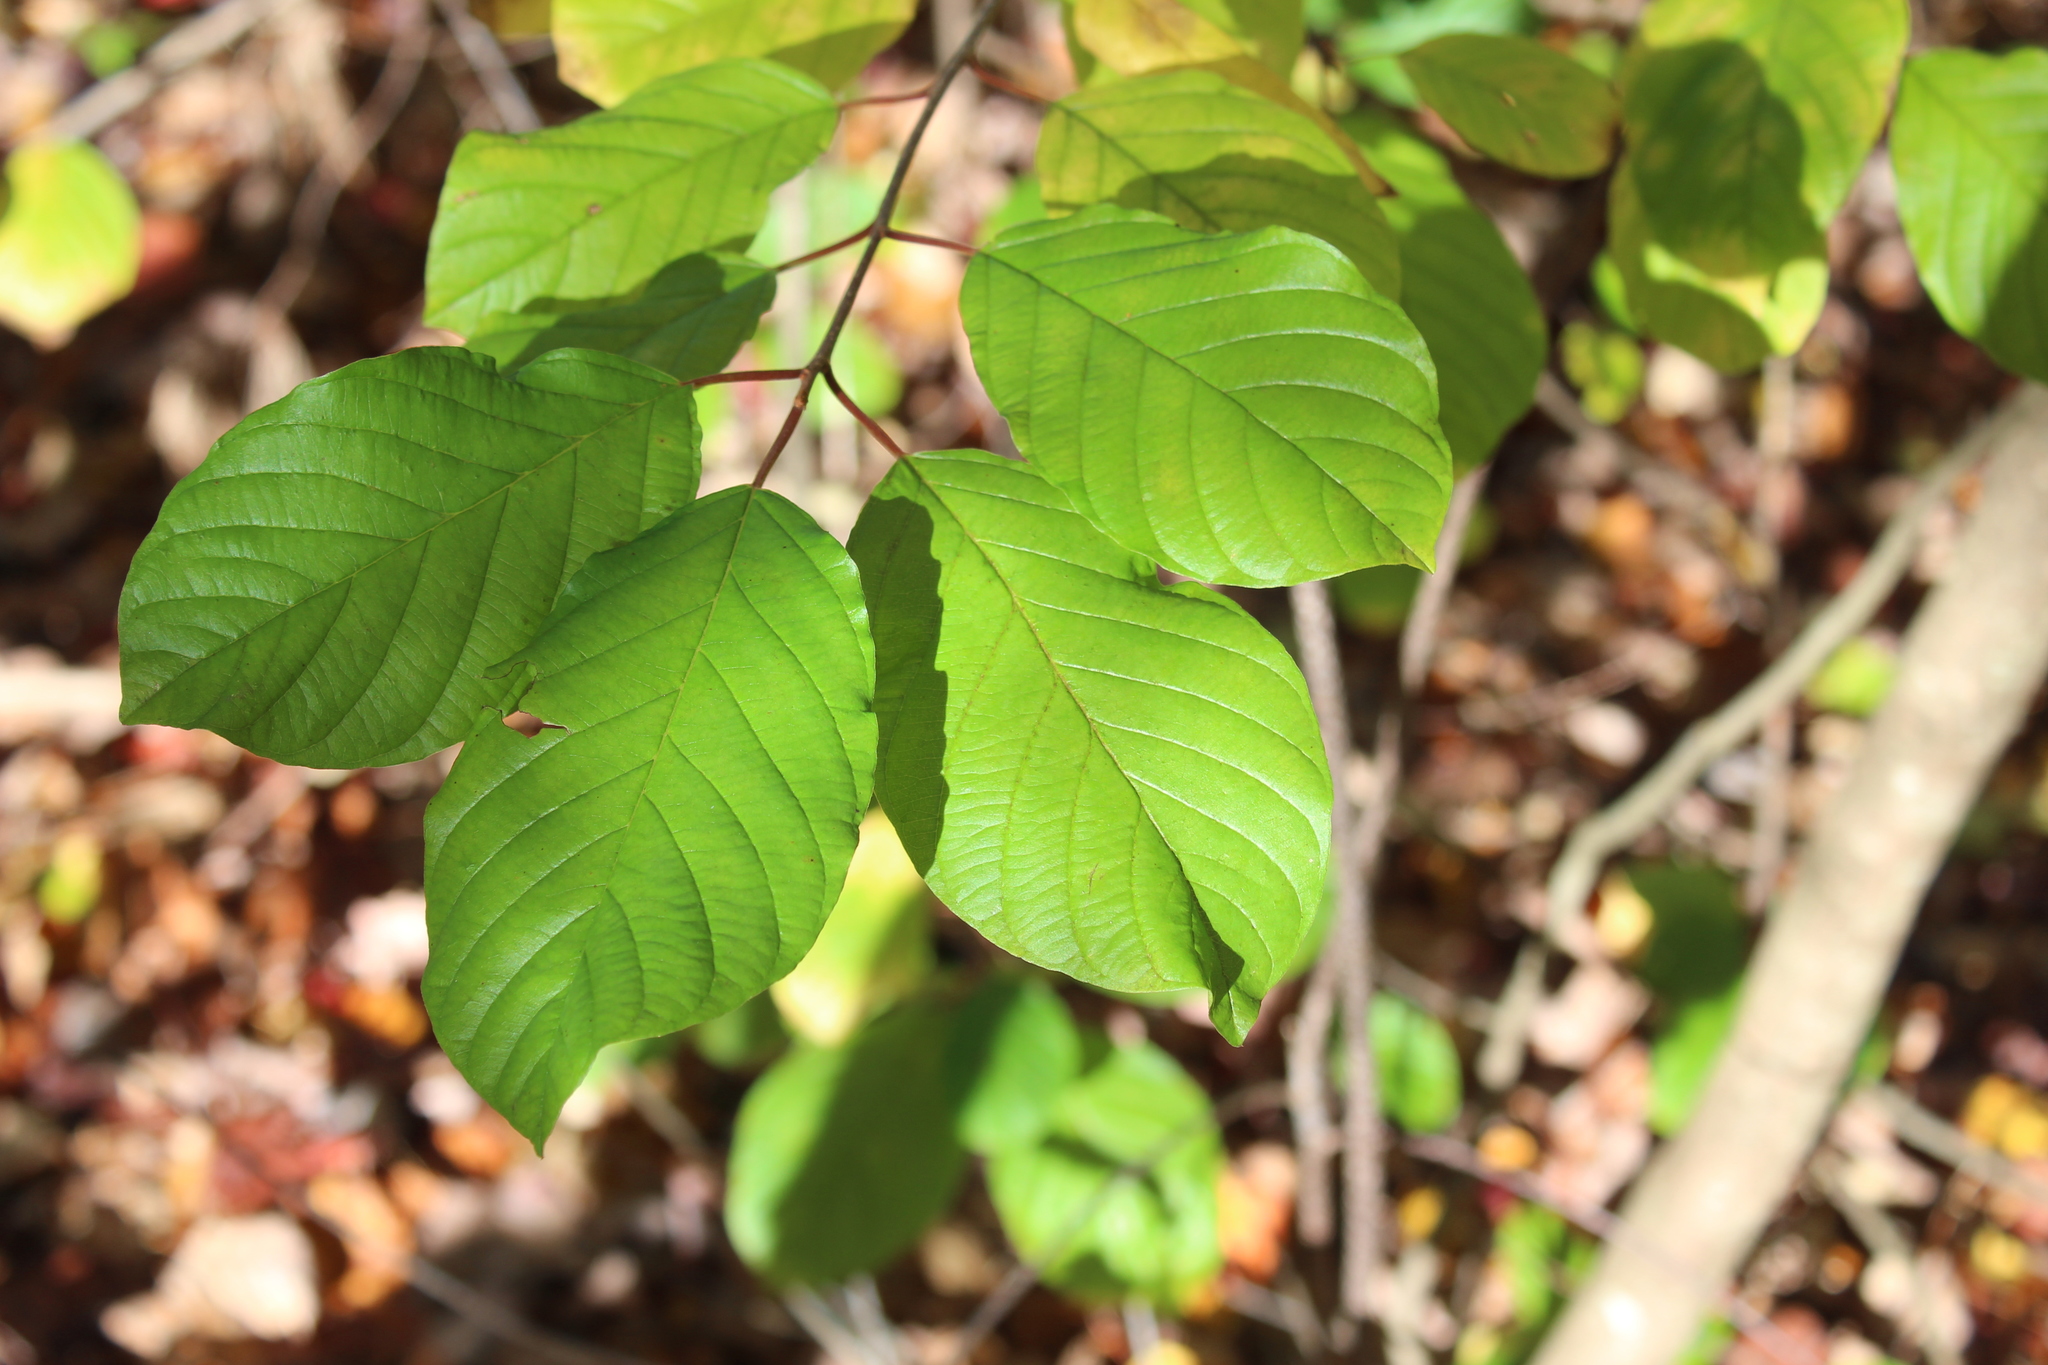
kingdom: Plantae
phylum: Tracheophyta
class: Magnoliopsida
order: Rosales
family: Rhamnaceae
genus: Frangula
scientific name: Frangula alnus
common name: Alder buckthorn
